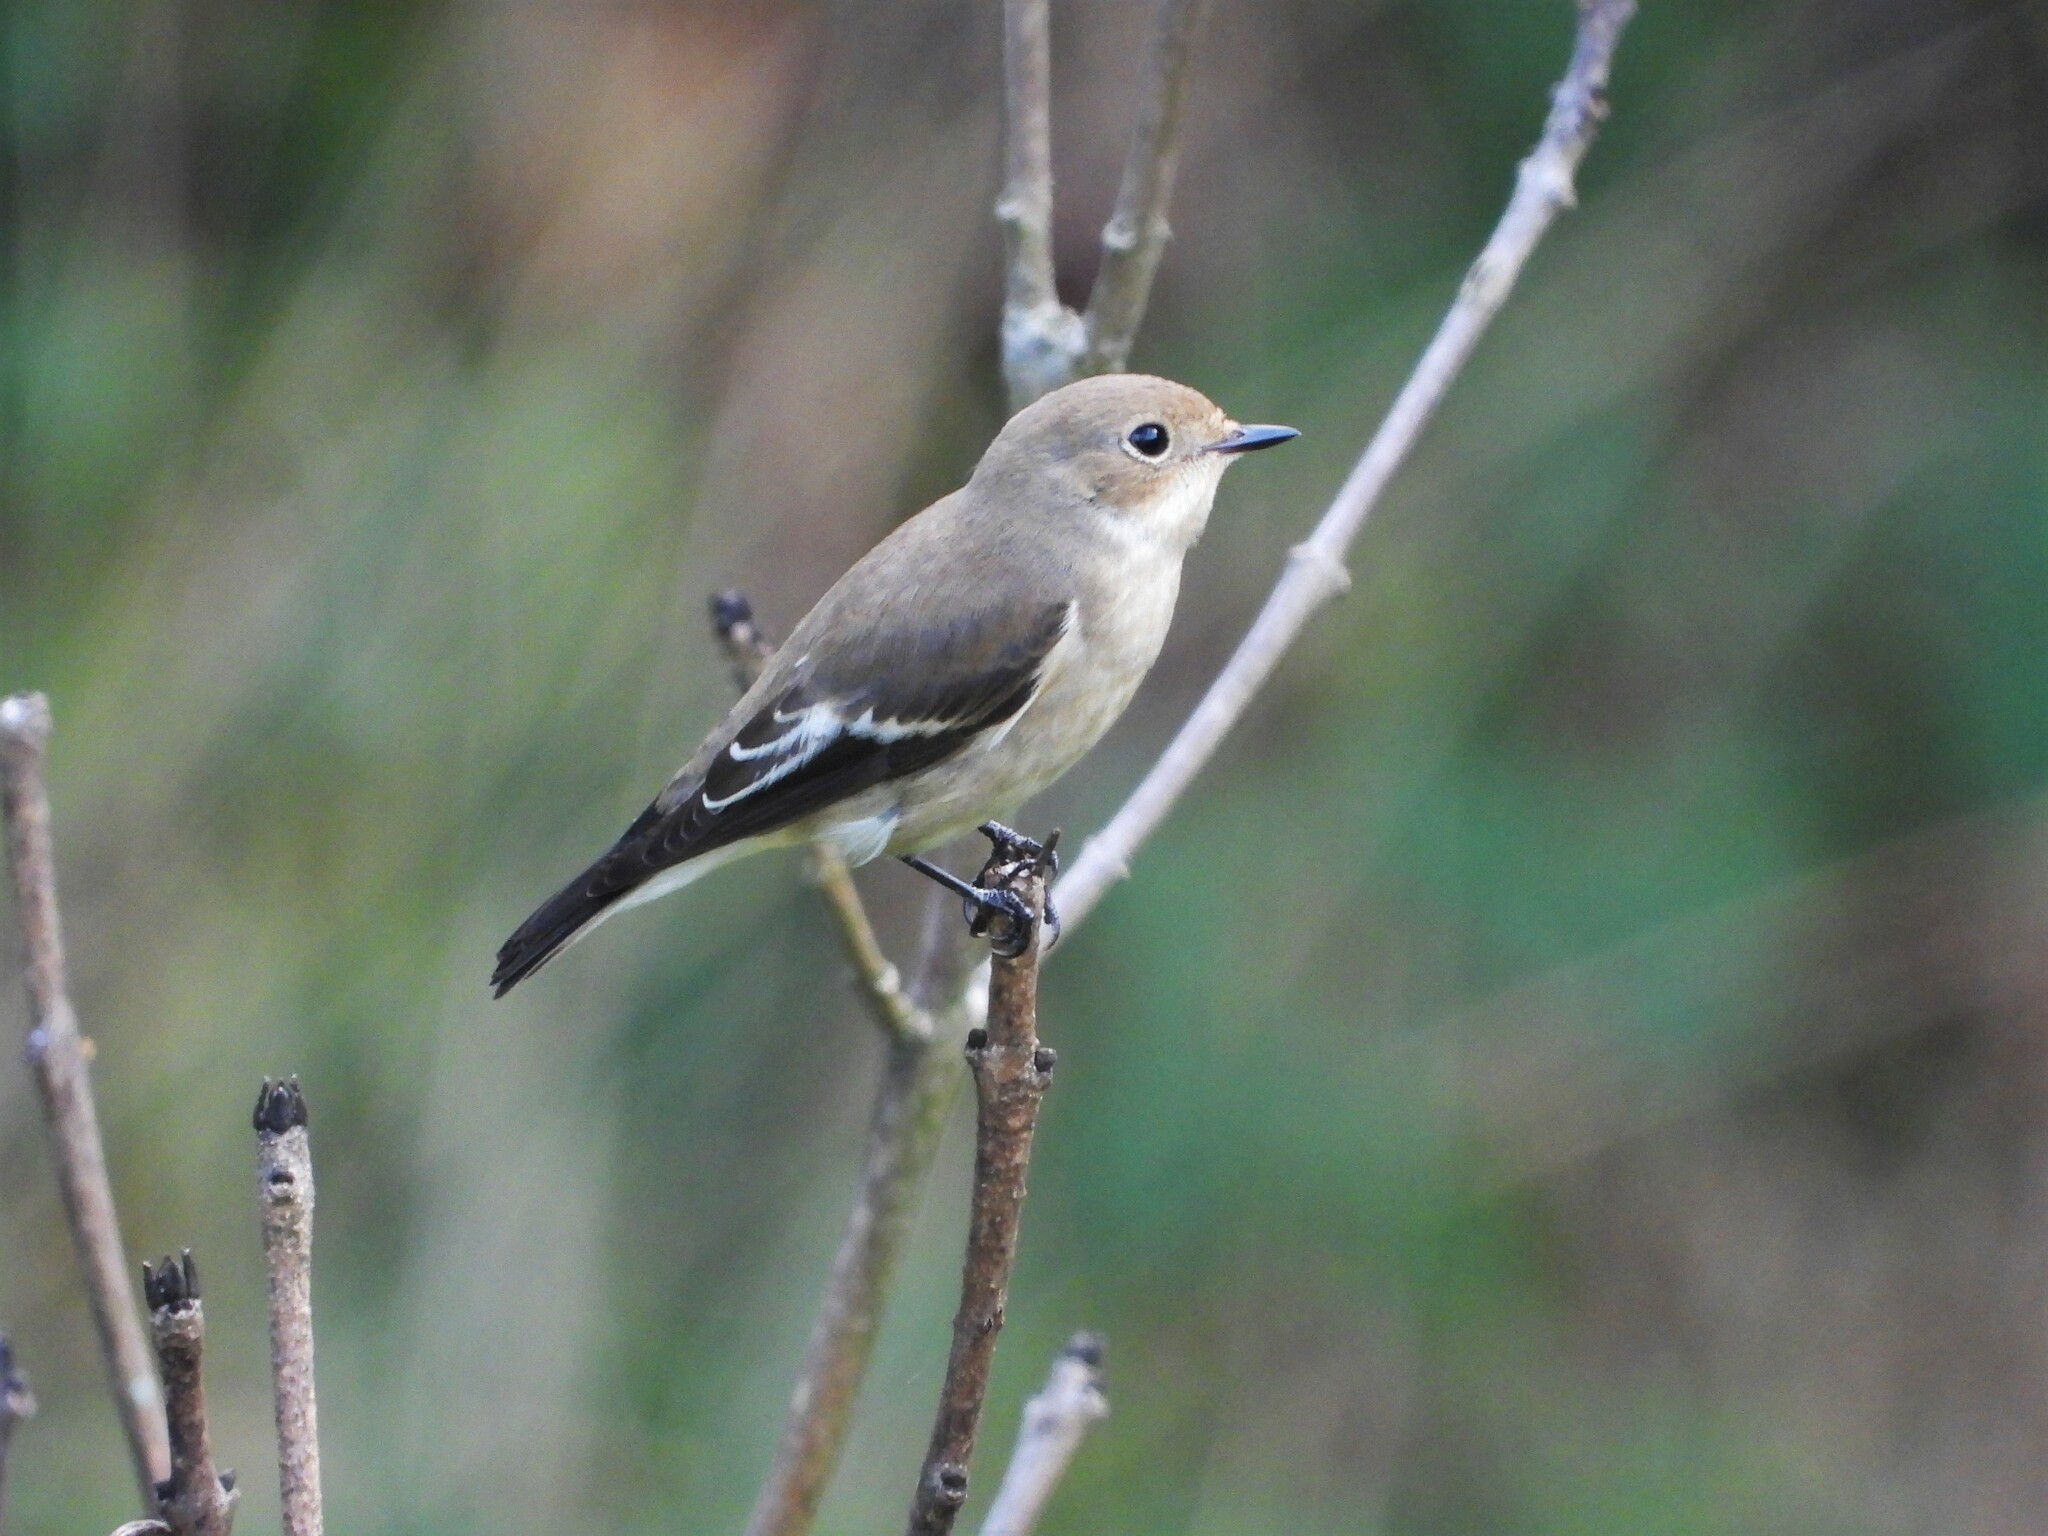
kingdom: Animalia
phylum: Chordata
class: Aves
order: Passeriformes
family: Muscicapidae
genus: Ficedula
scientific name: Ficedula hypoleuca
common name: European pied flycatcher
